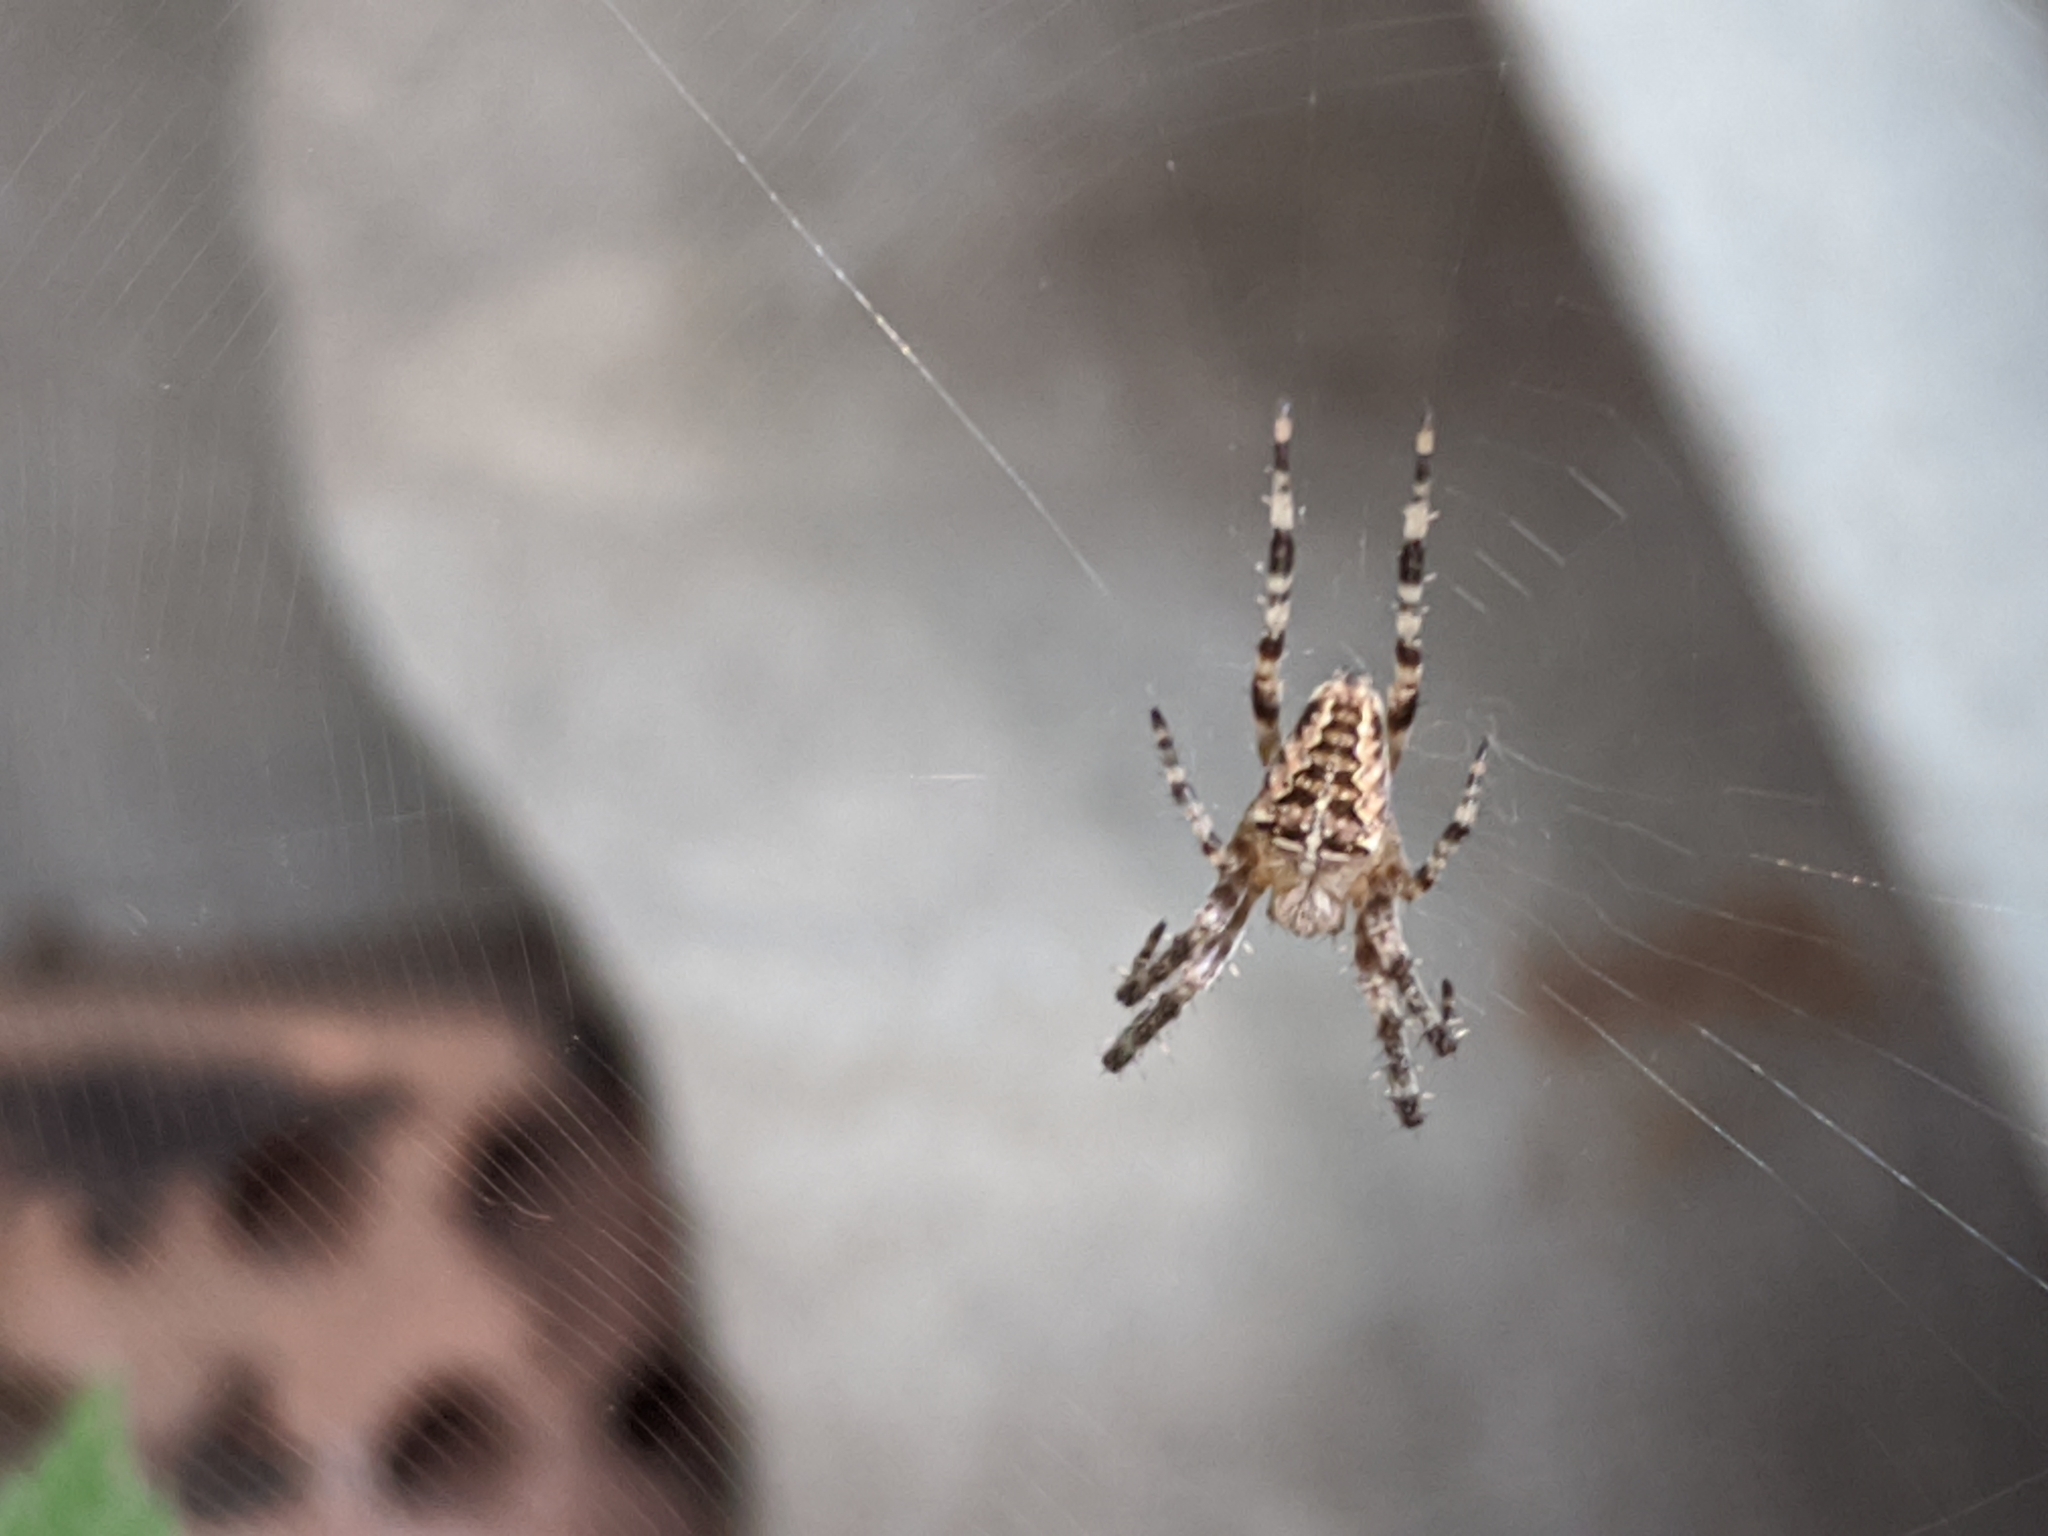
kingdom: Animalia
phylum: Arthropoda
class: Arachnida
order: Araneae
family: Araneidae
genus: Araneus
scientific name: Araneus diadematus
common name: Cross orbweaver
